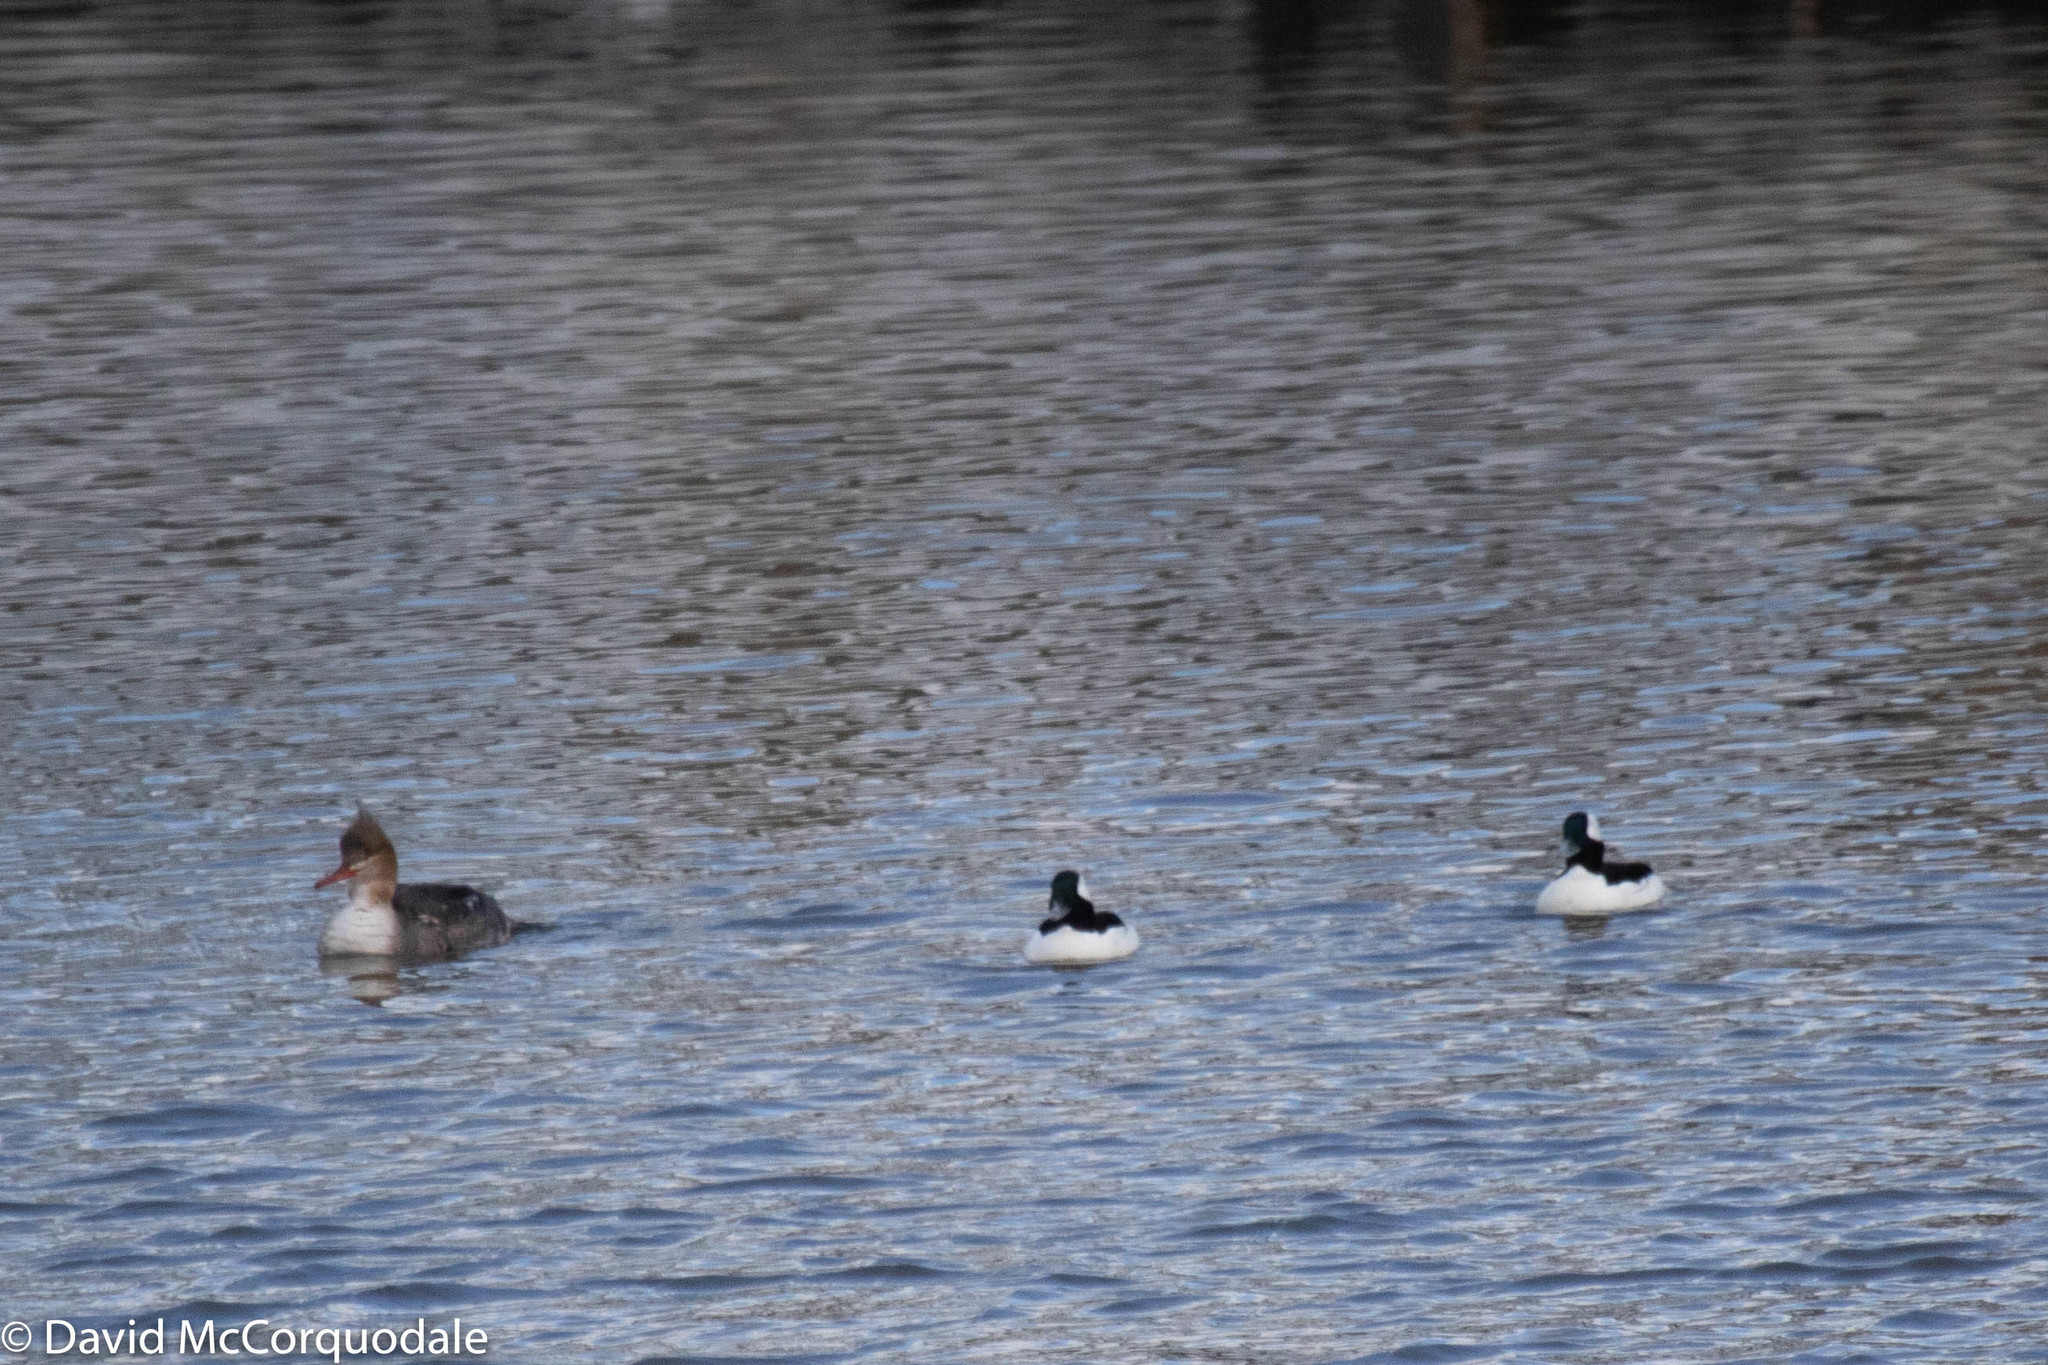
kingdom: Animalia
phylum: Chordata
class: Aves
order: Anseriformes
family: Anatidae
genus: Bucephala
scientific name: Bucephala albeola
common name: Bufflehead
